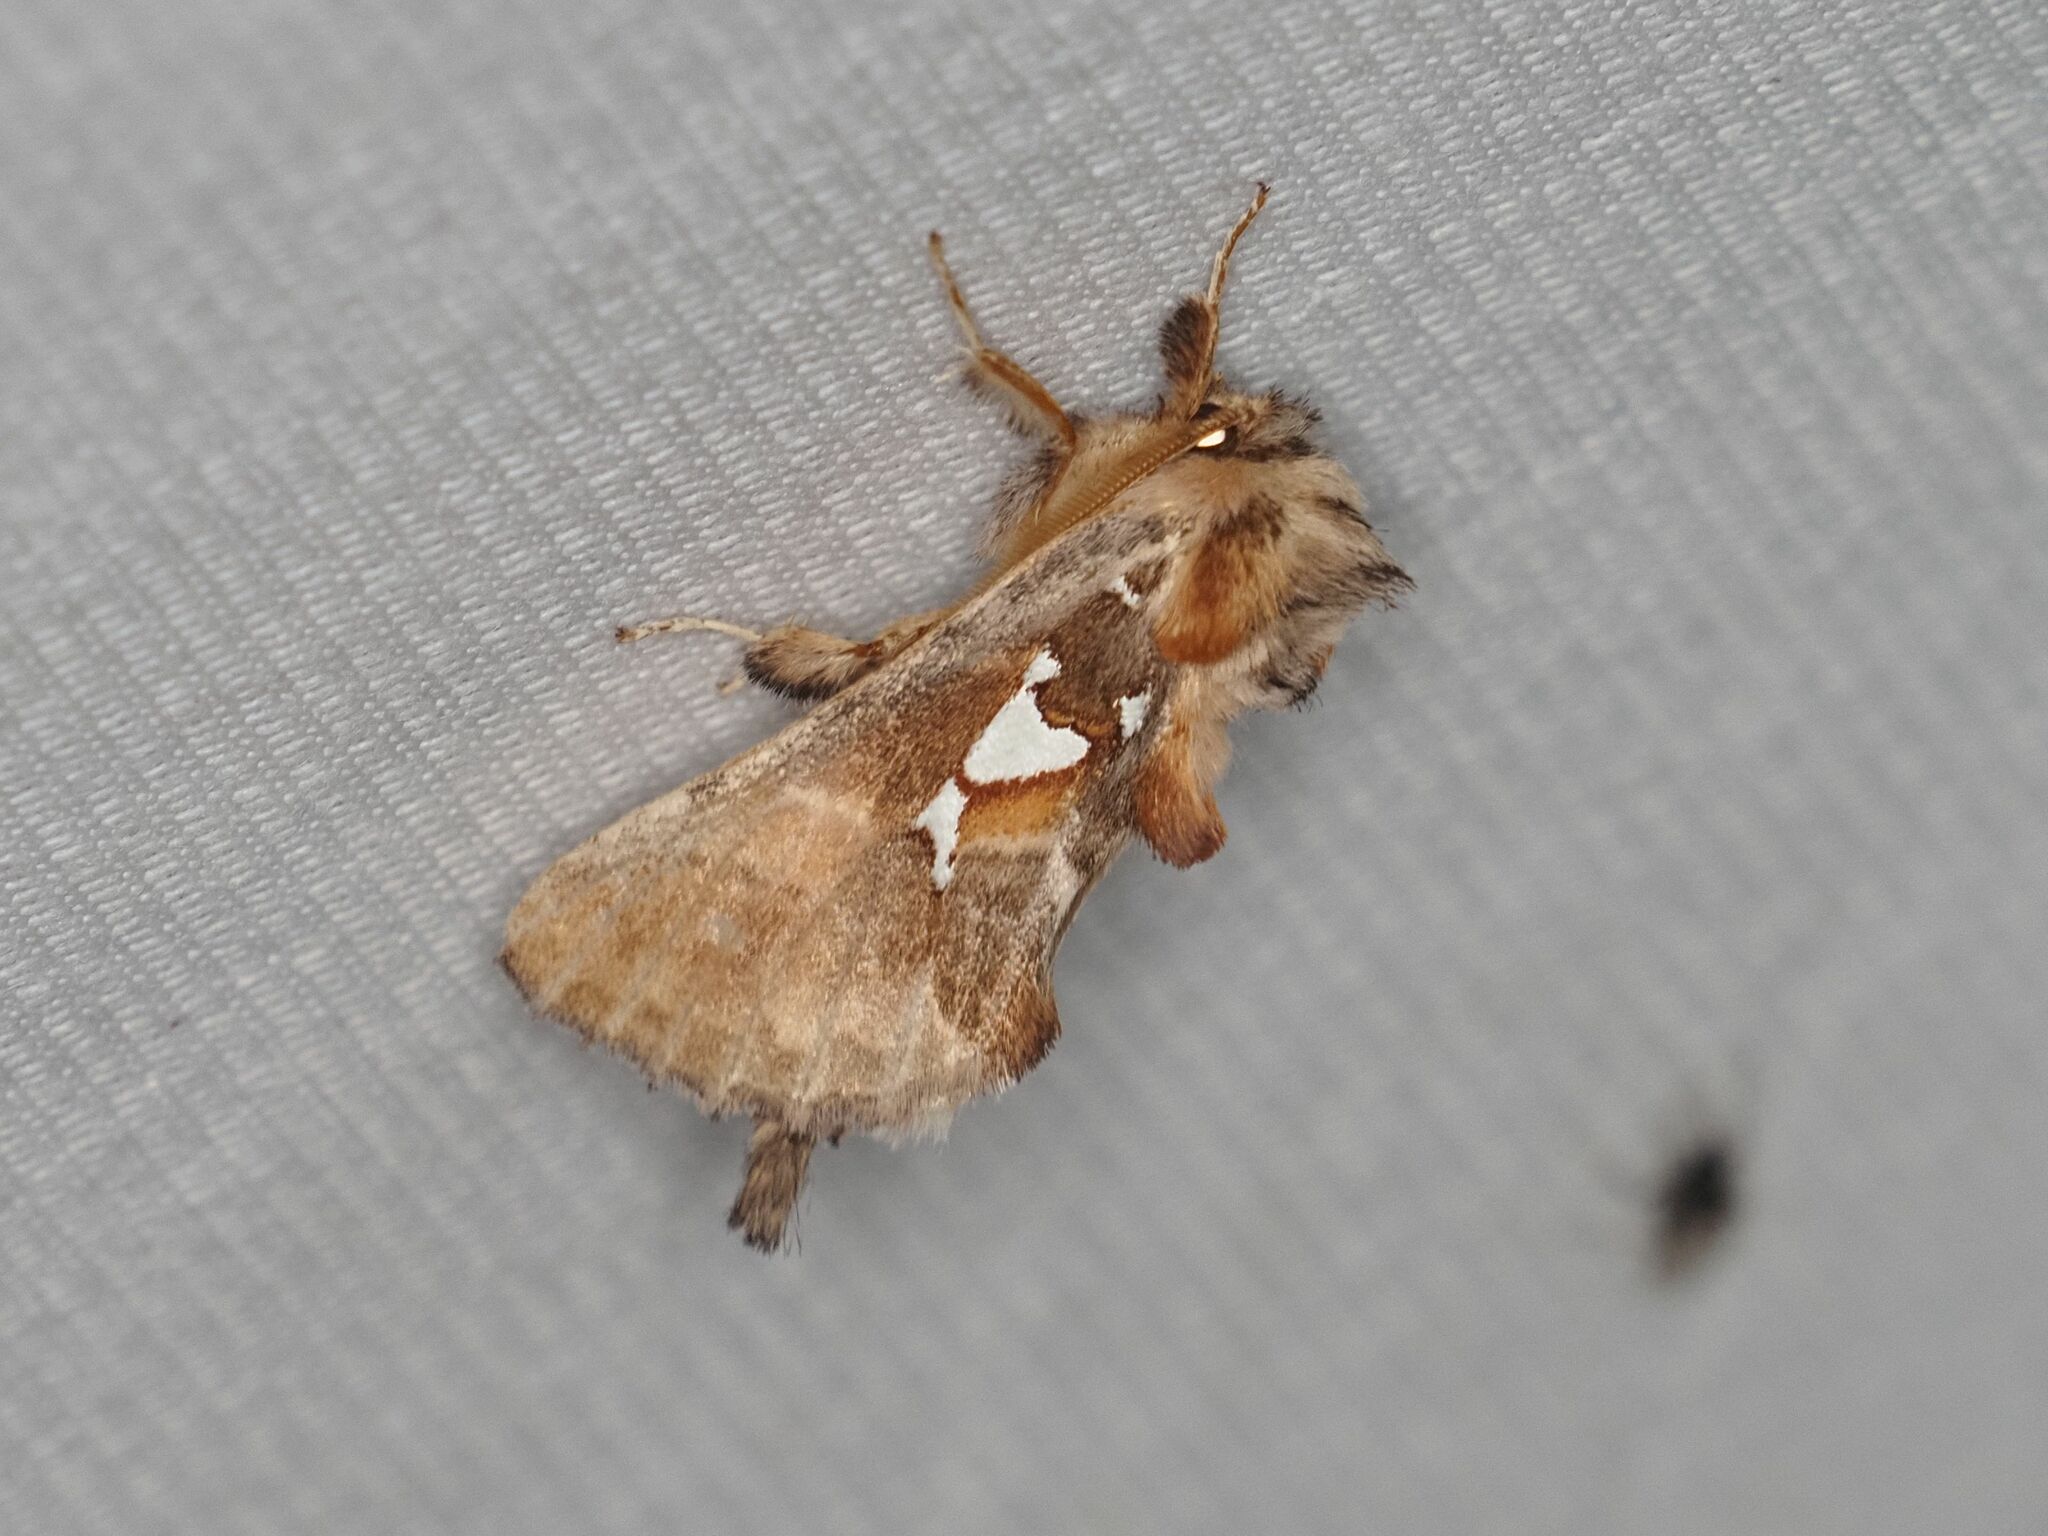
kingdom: Animalia
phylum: Arthropoda
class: Insecta
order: Lepidoptera
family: Notodontidae
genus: Spatalia
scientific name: Spatalia argentina
